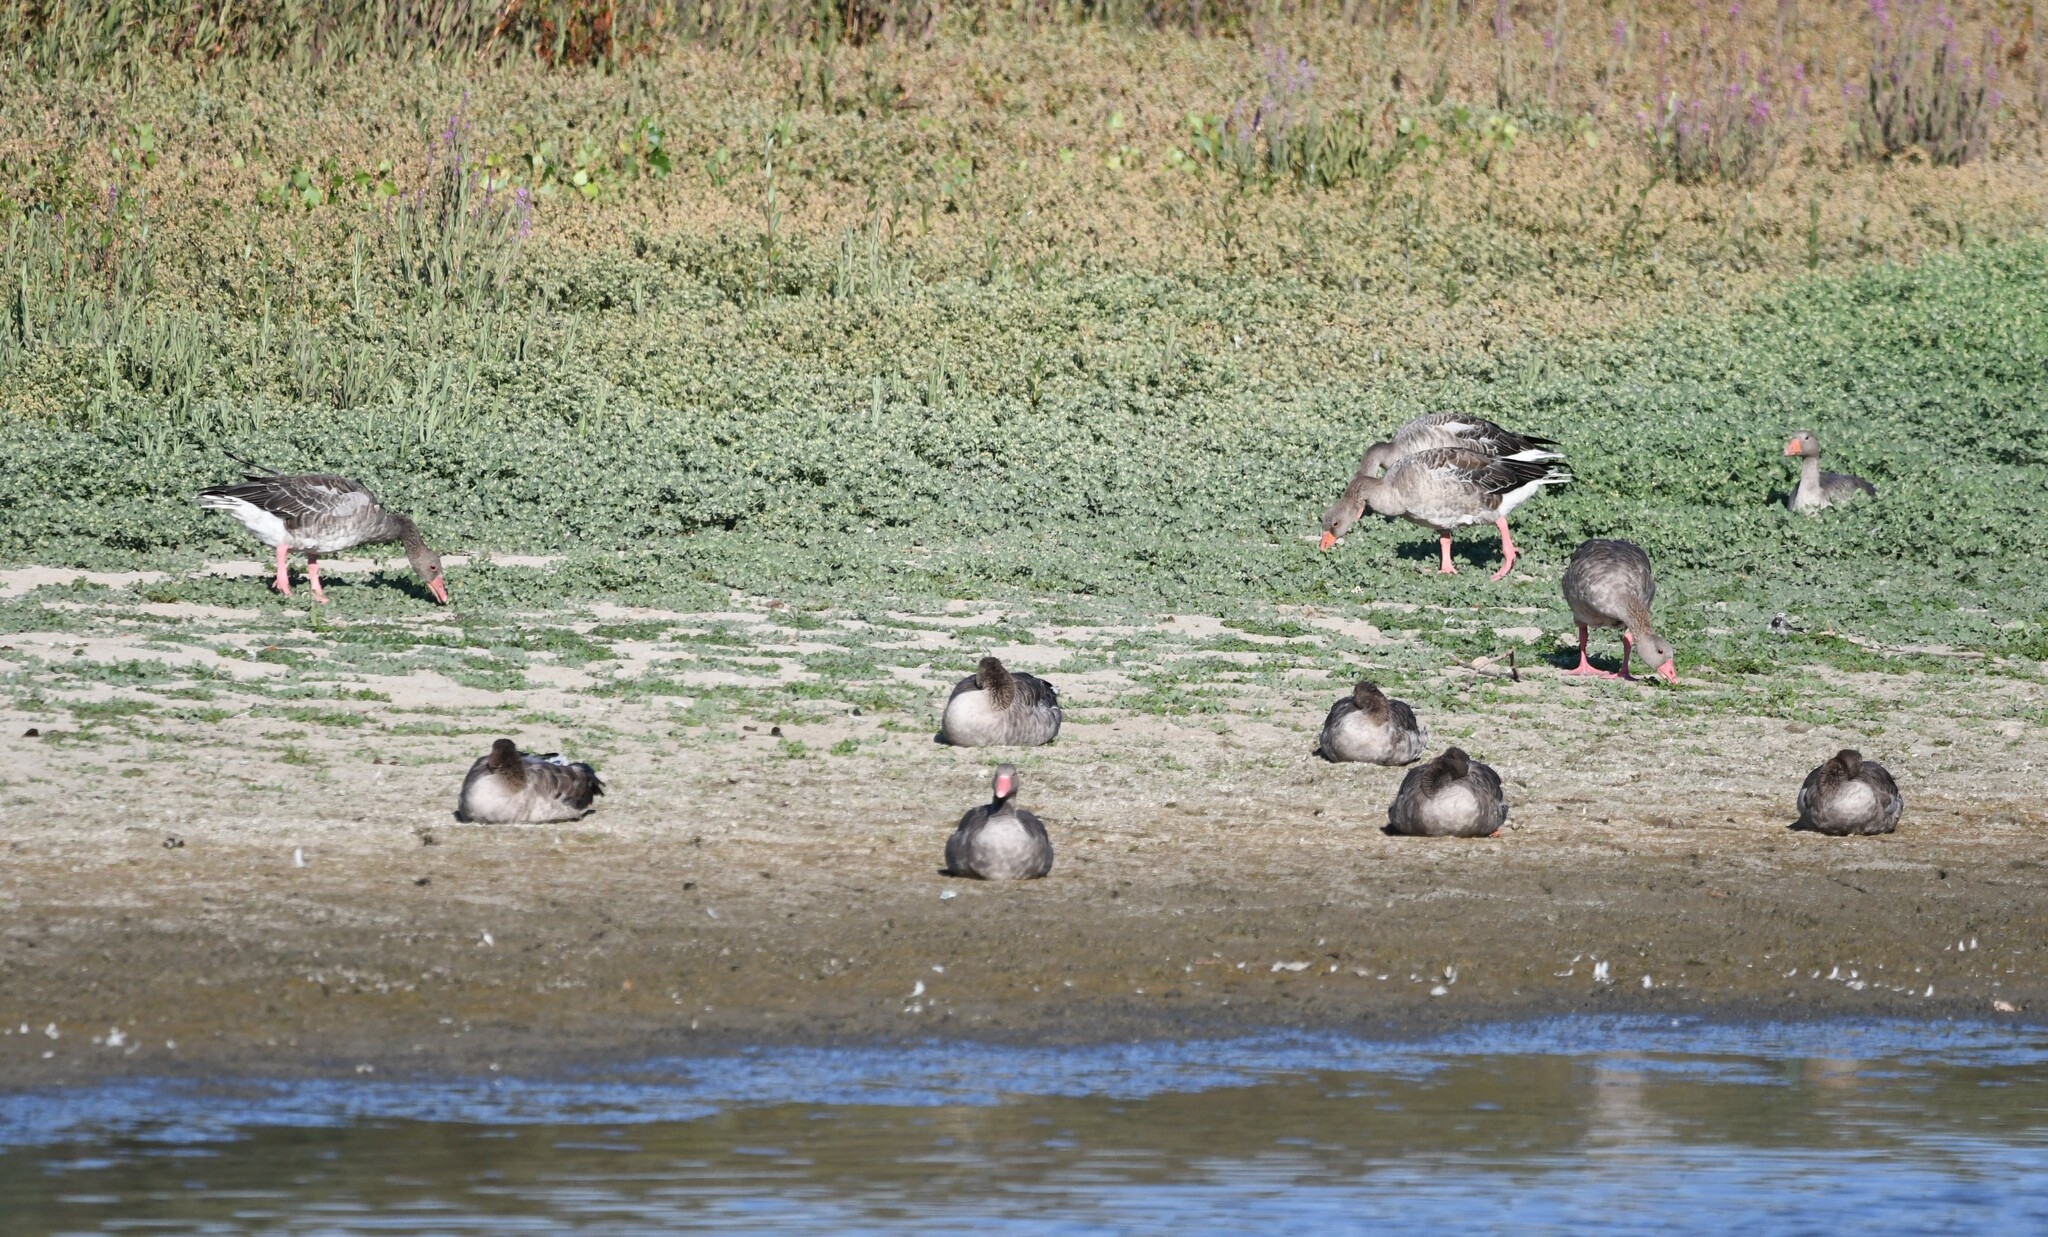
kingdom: Animalia
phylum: Chordata
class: Aves
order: Anseriformes
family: Anatidae
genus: Anser
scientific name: Anser anser
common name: Greylag goose
